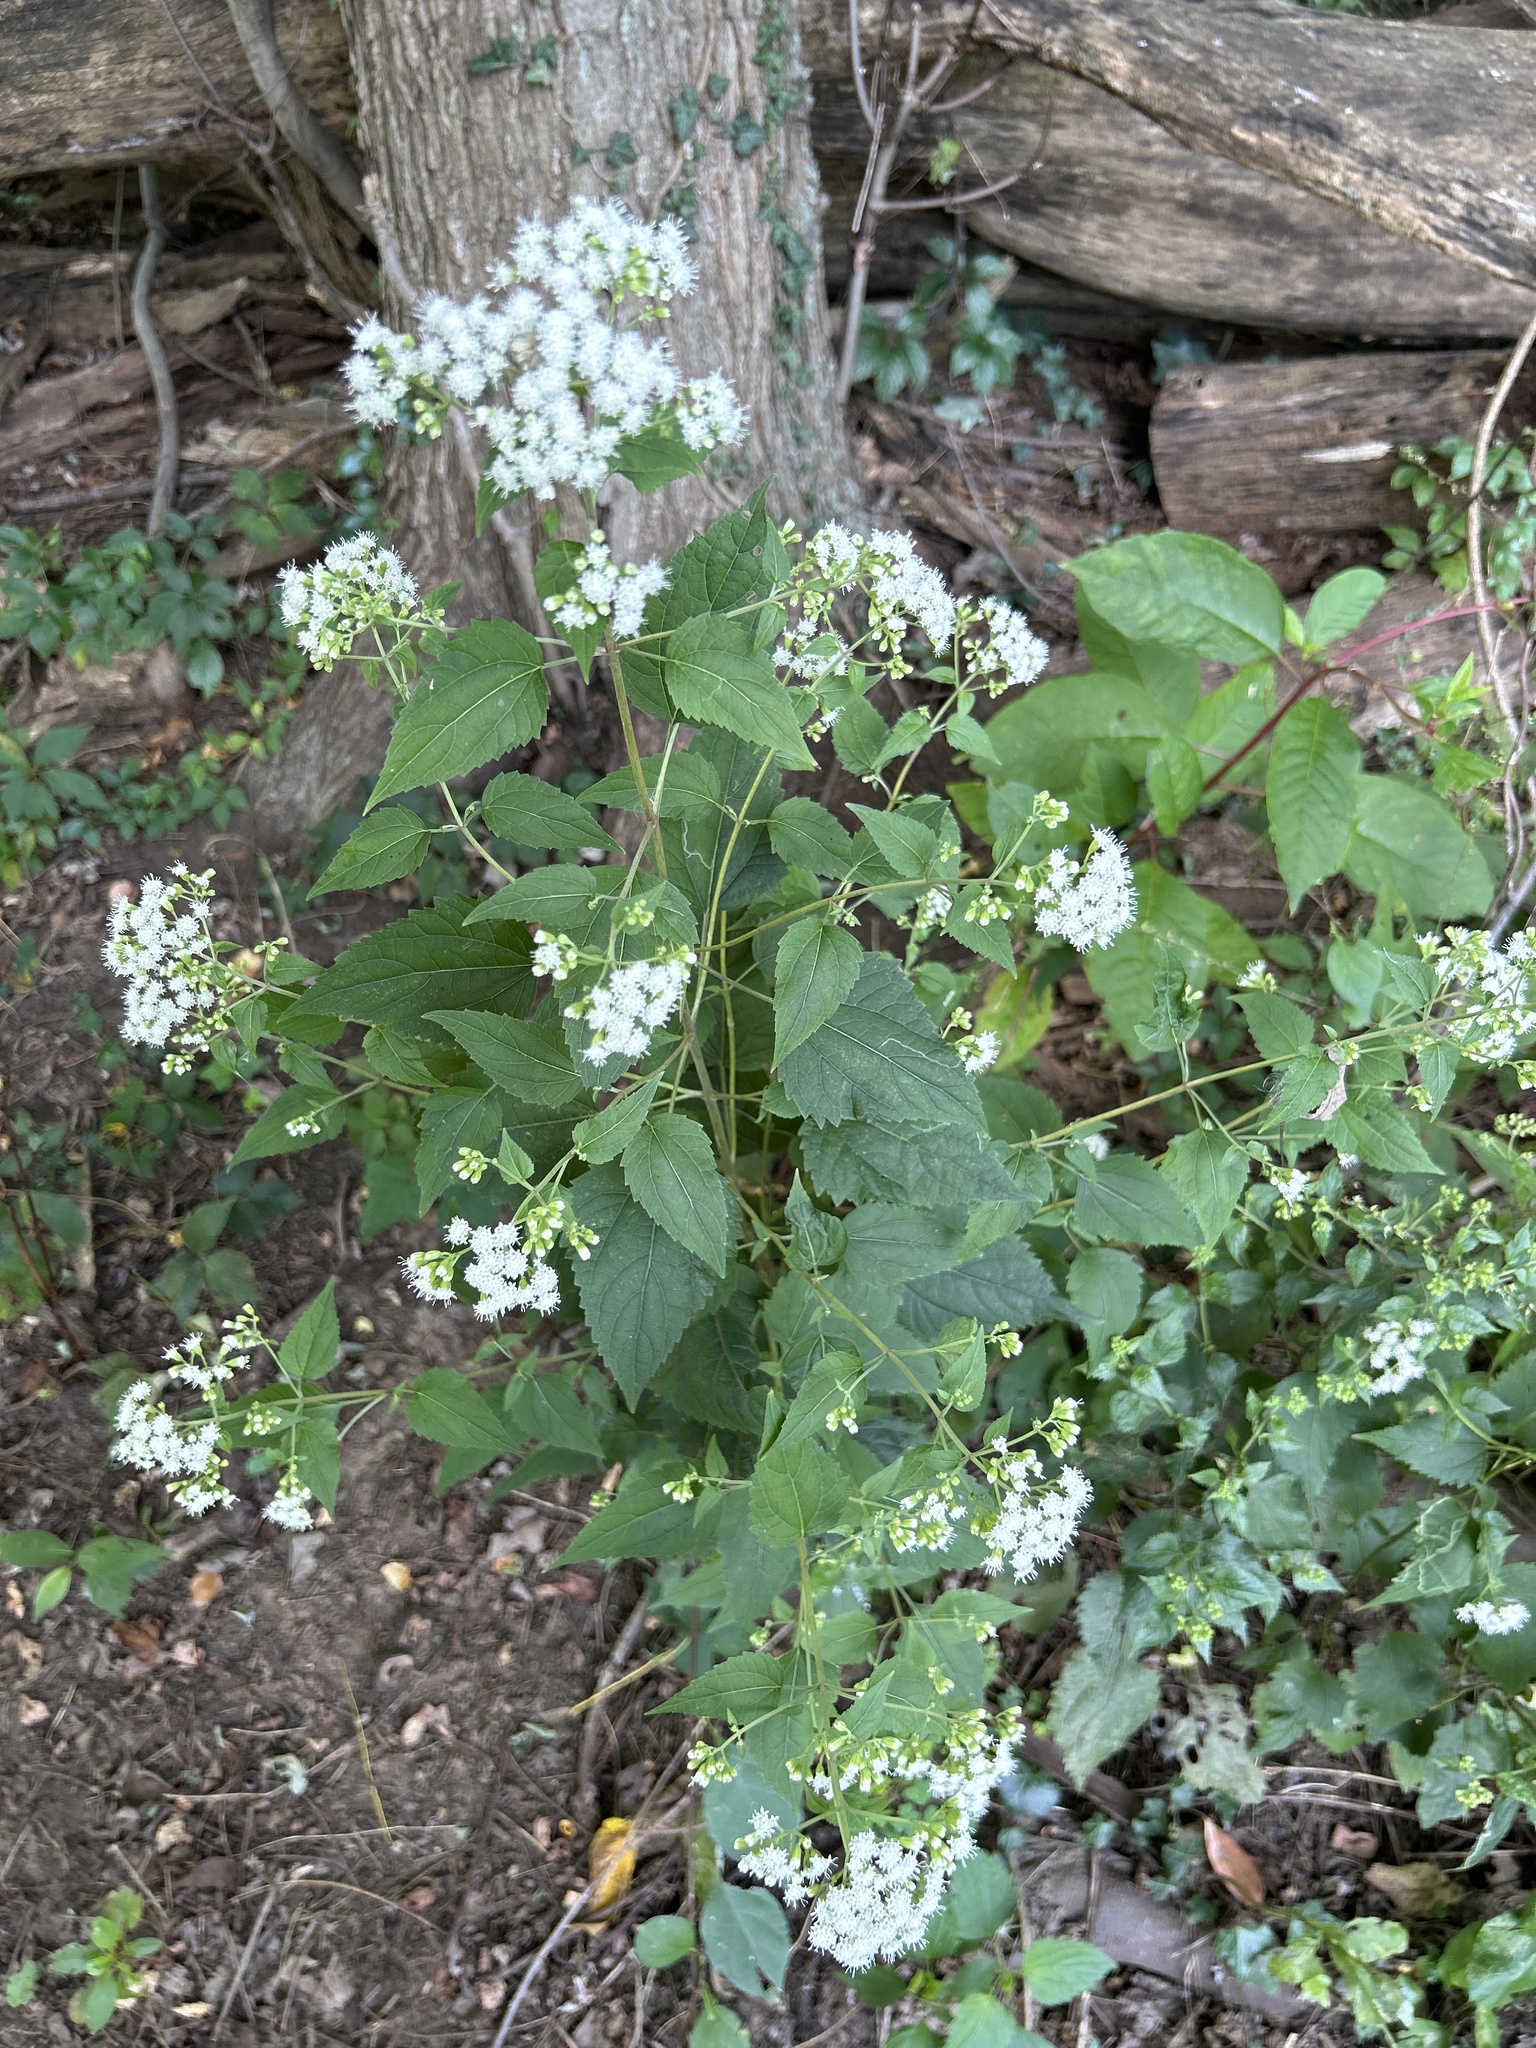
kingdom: Plantae
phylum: Tracheophyta
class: Magnoliopsida
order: Asterales
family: Asteraceae
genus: Ageratina
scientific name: Ageratina altissima
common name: White snakeroot
